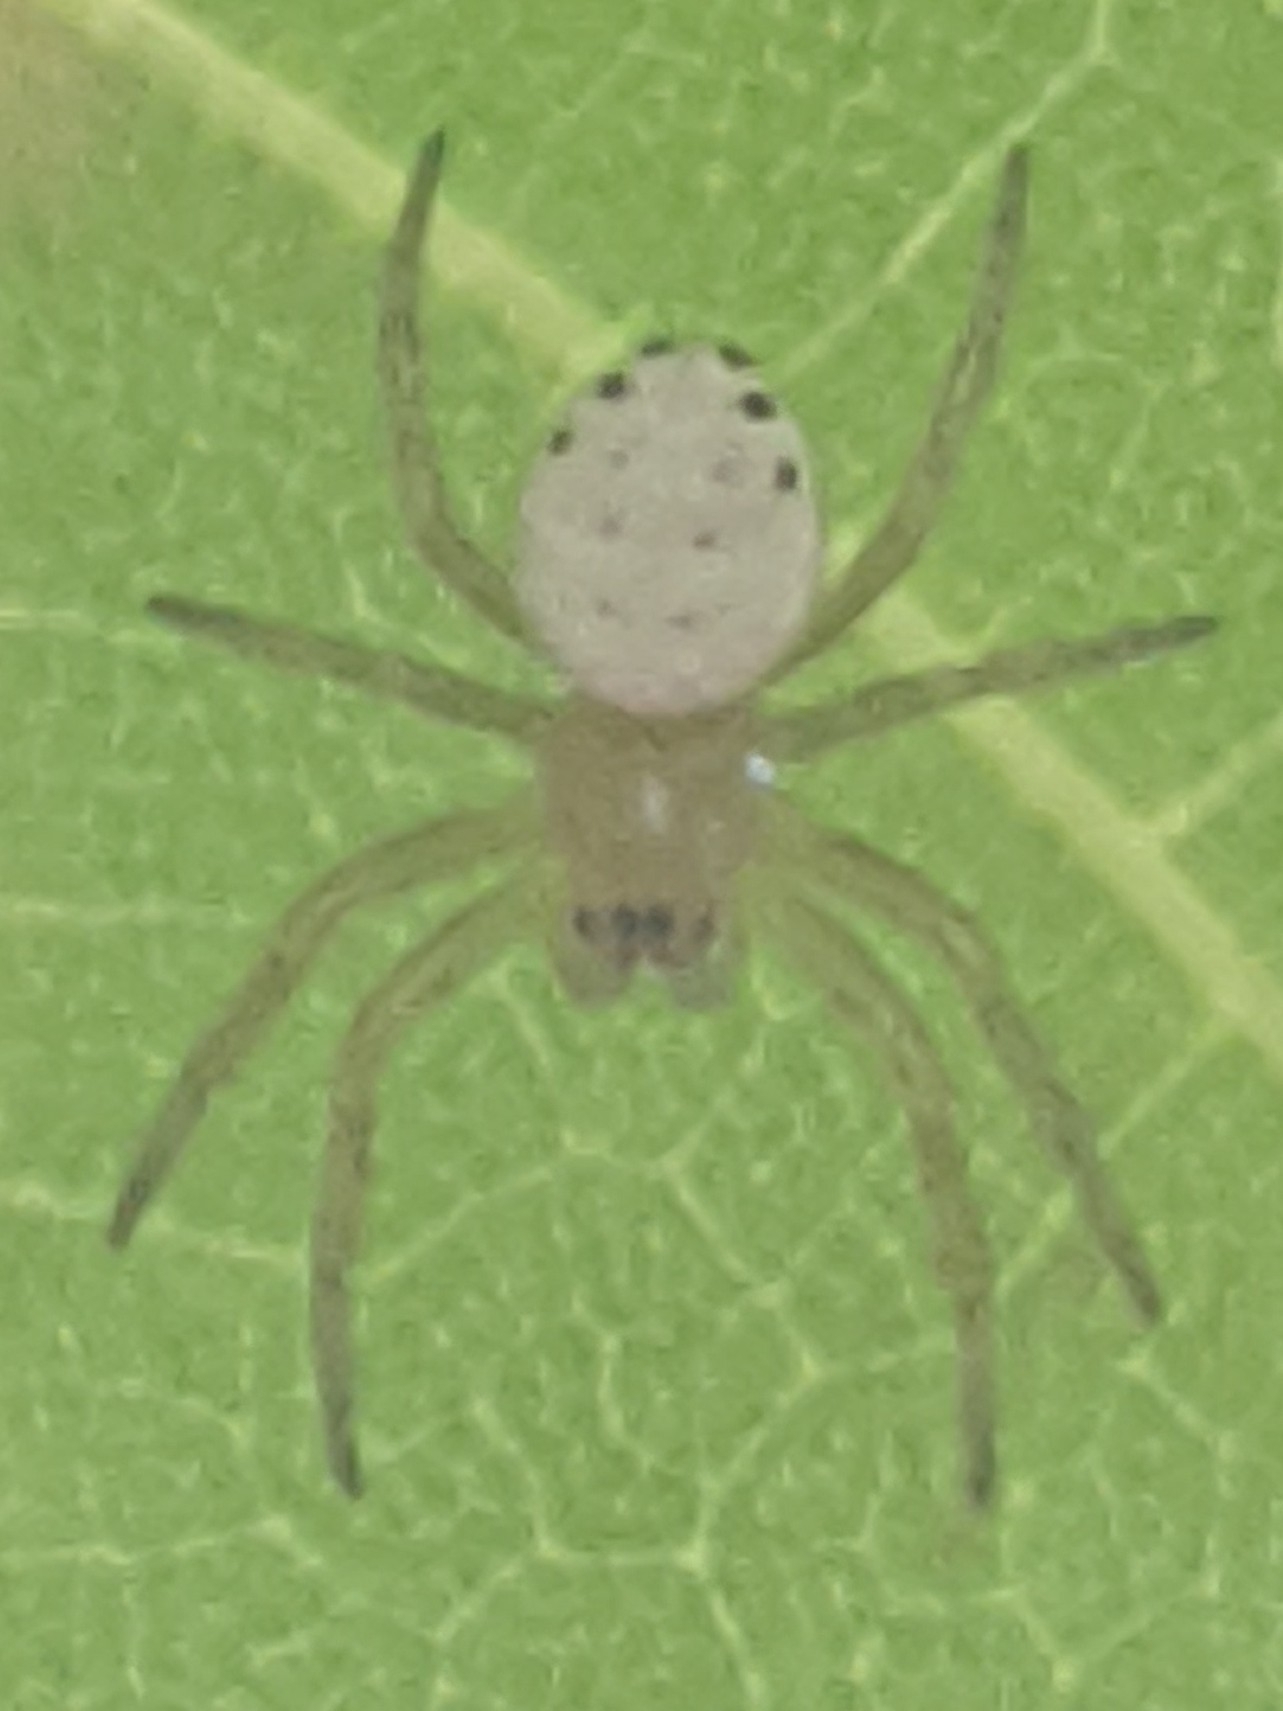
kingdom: Animalia
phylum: Arthropoda
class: Arachnida
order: Araneae
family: Araneidae
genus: Araniella
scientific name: Araniella displicata
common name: Sixspotted orb weaver
